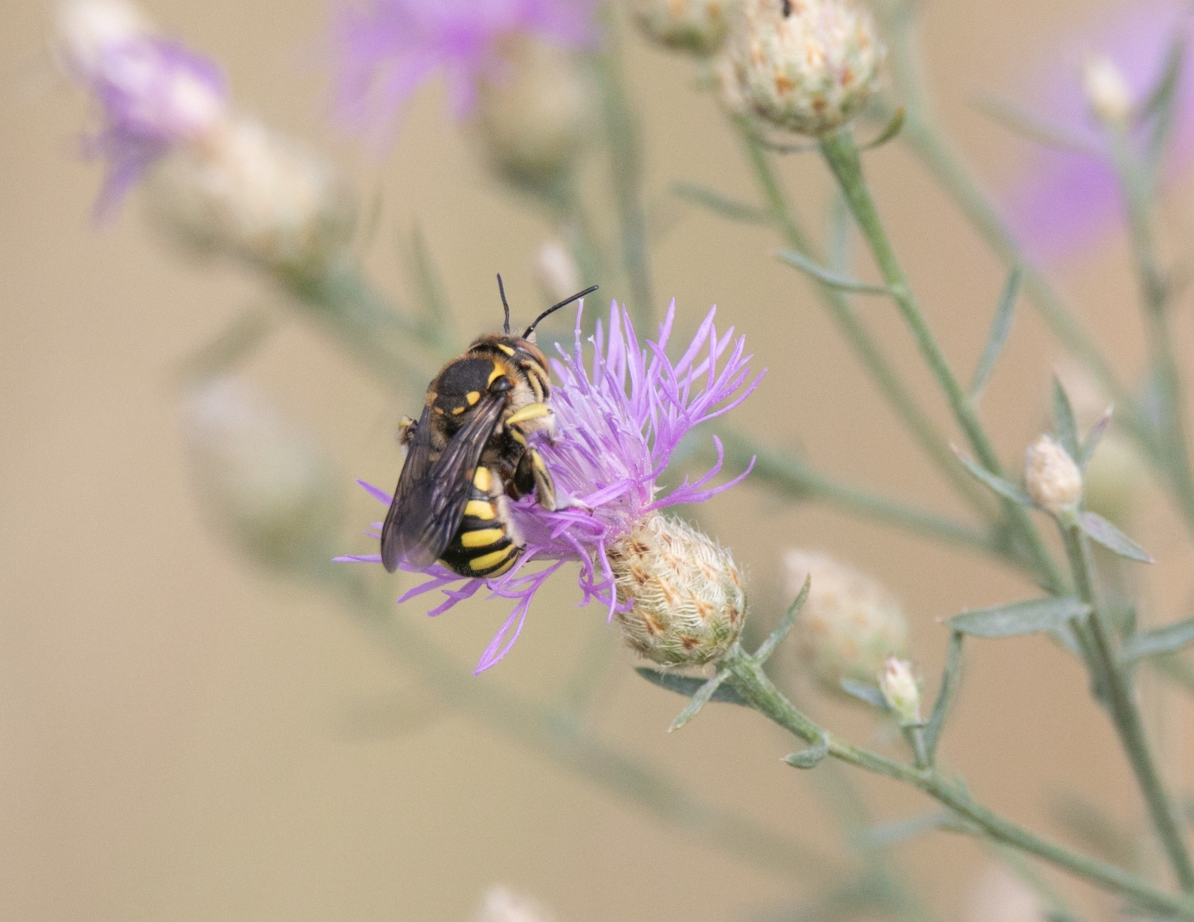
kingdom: Animalia
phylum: Arthropoda
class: Insecta
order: Hymenoptera
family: Megachilidae
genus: Anthidium
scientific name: Anthidium florentinum
